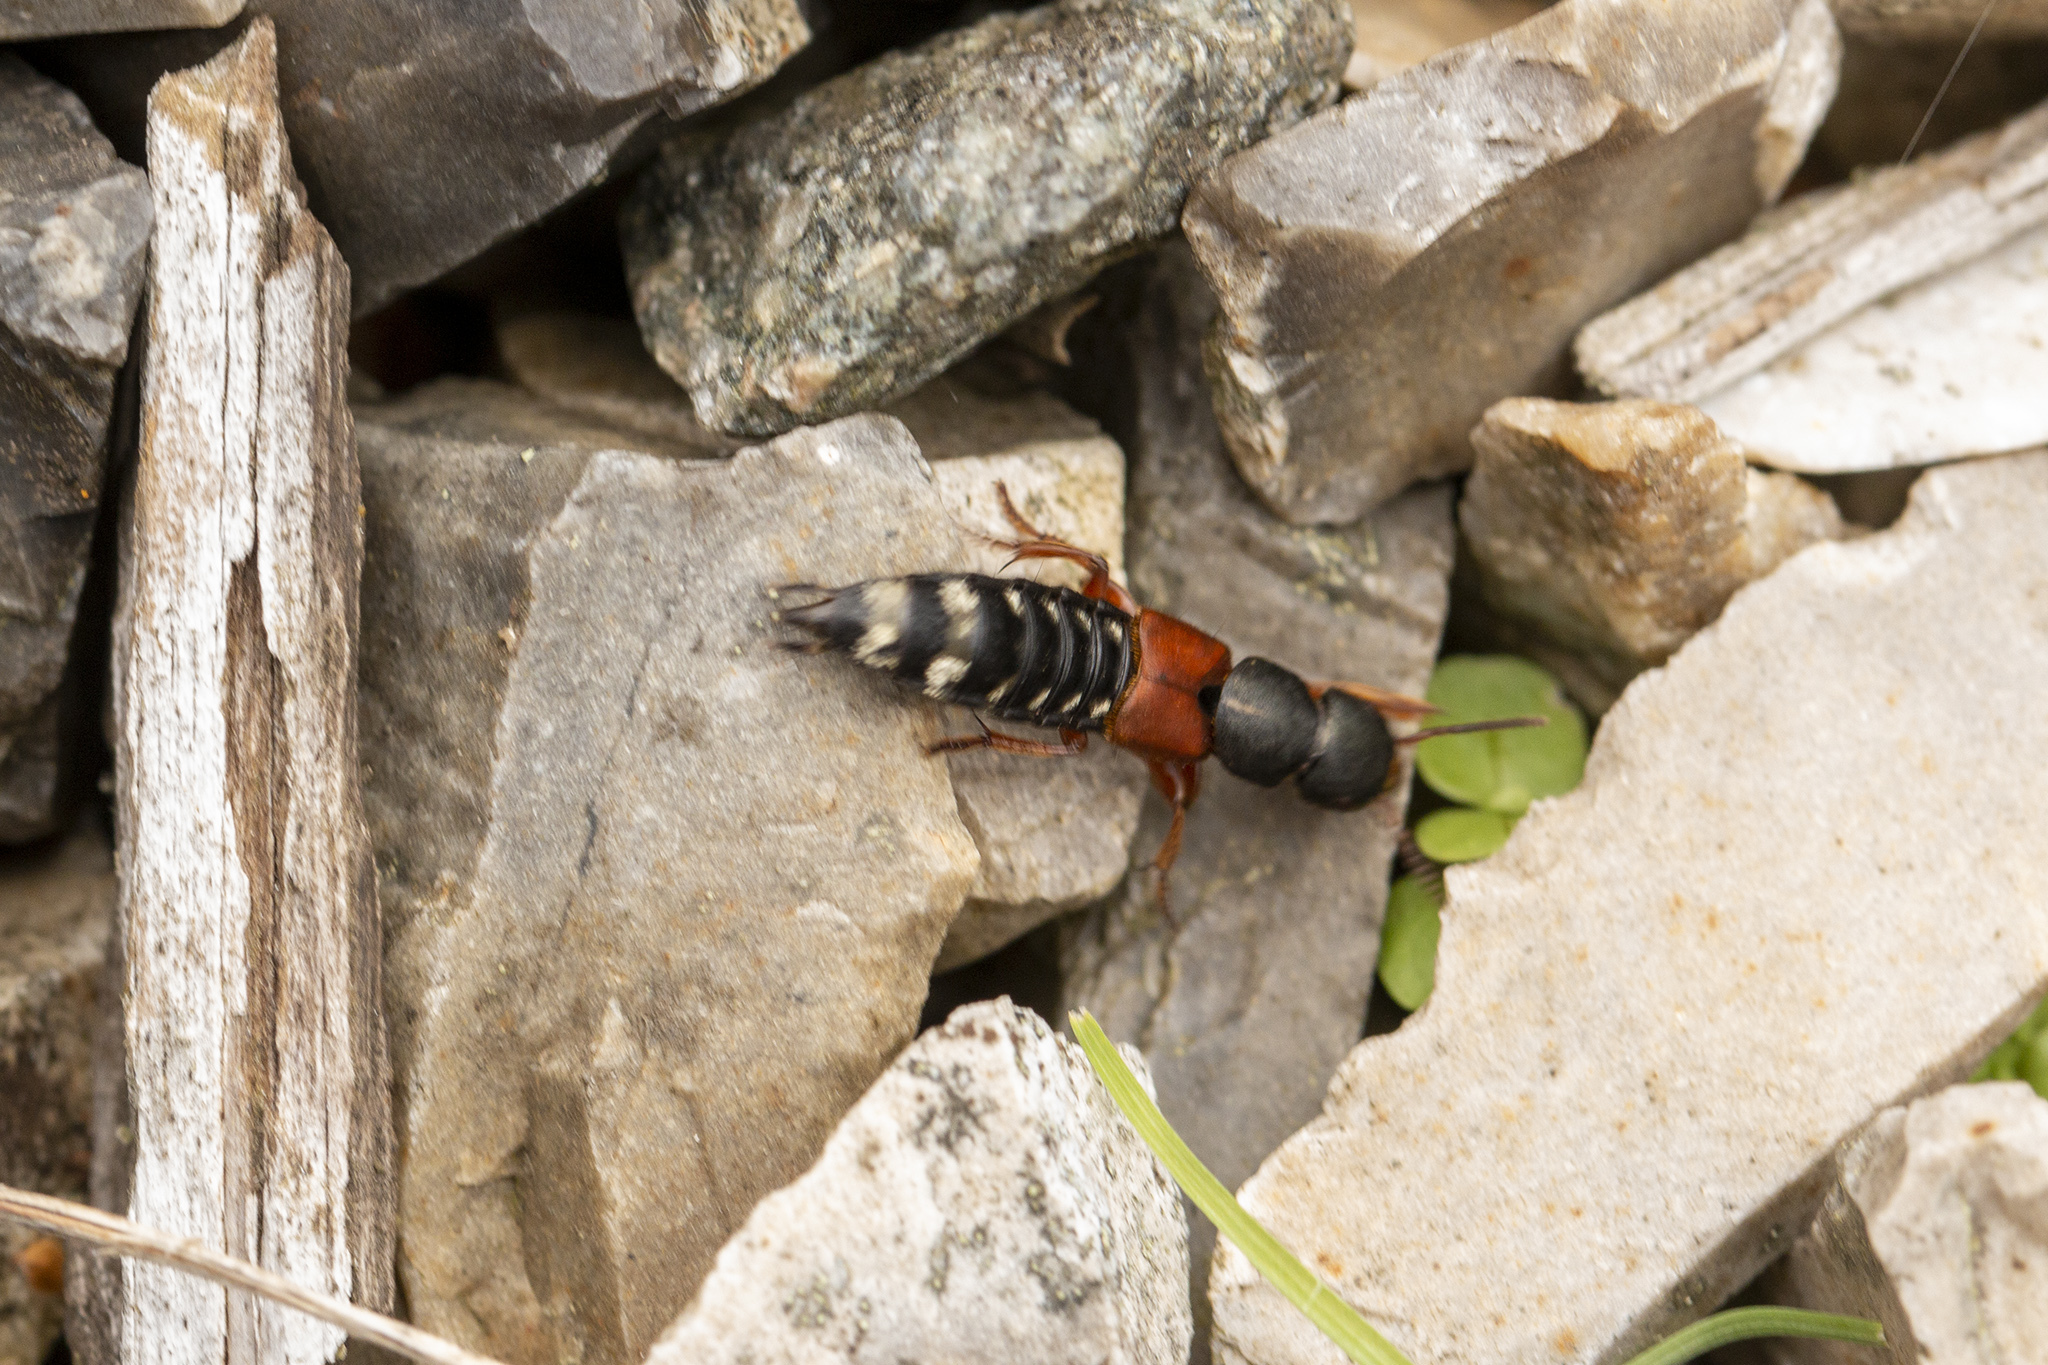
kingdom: Animalia
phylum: Arthropoda
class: Insecta
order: Coleoptera
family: Staphylinidae
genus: Platydracus
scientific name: Platydracus stercorarius
